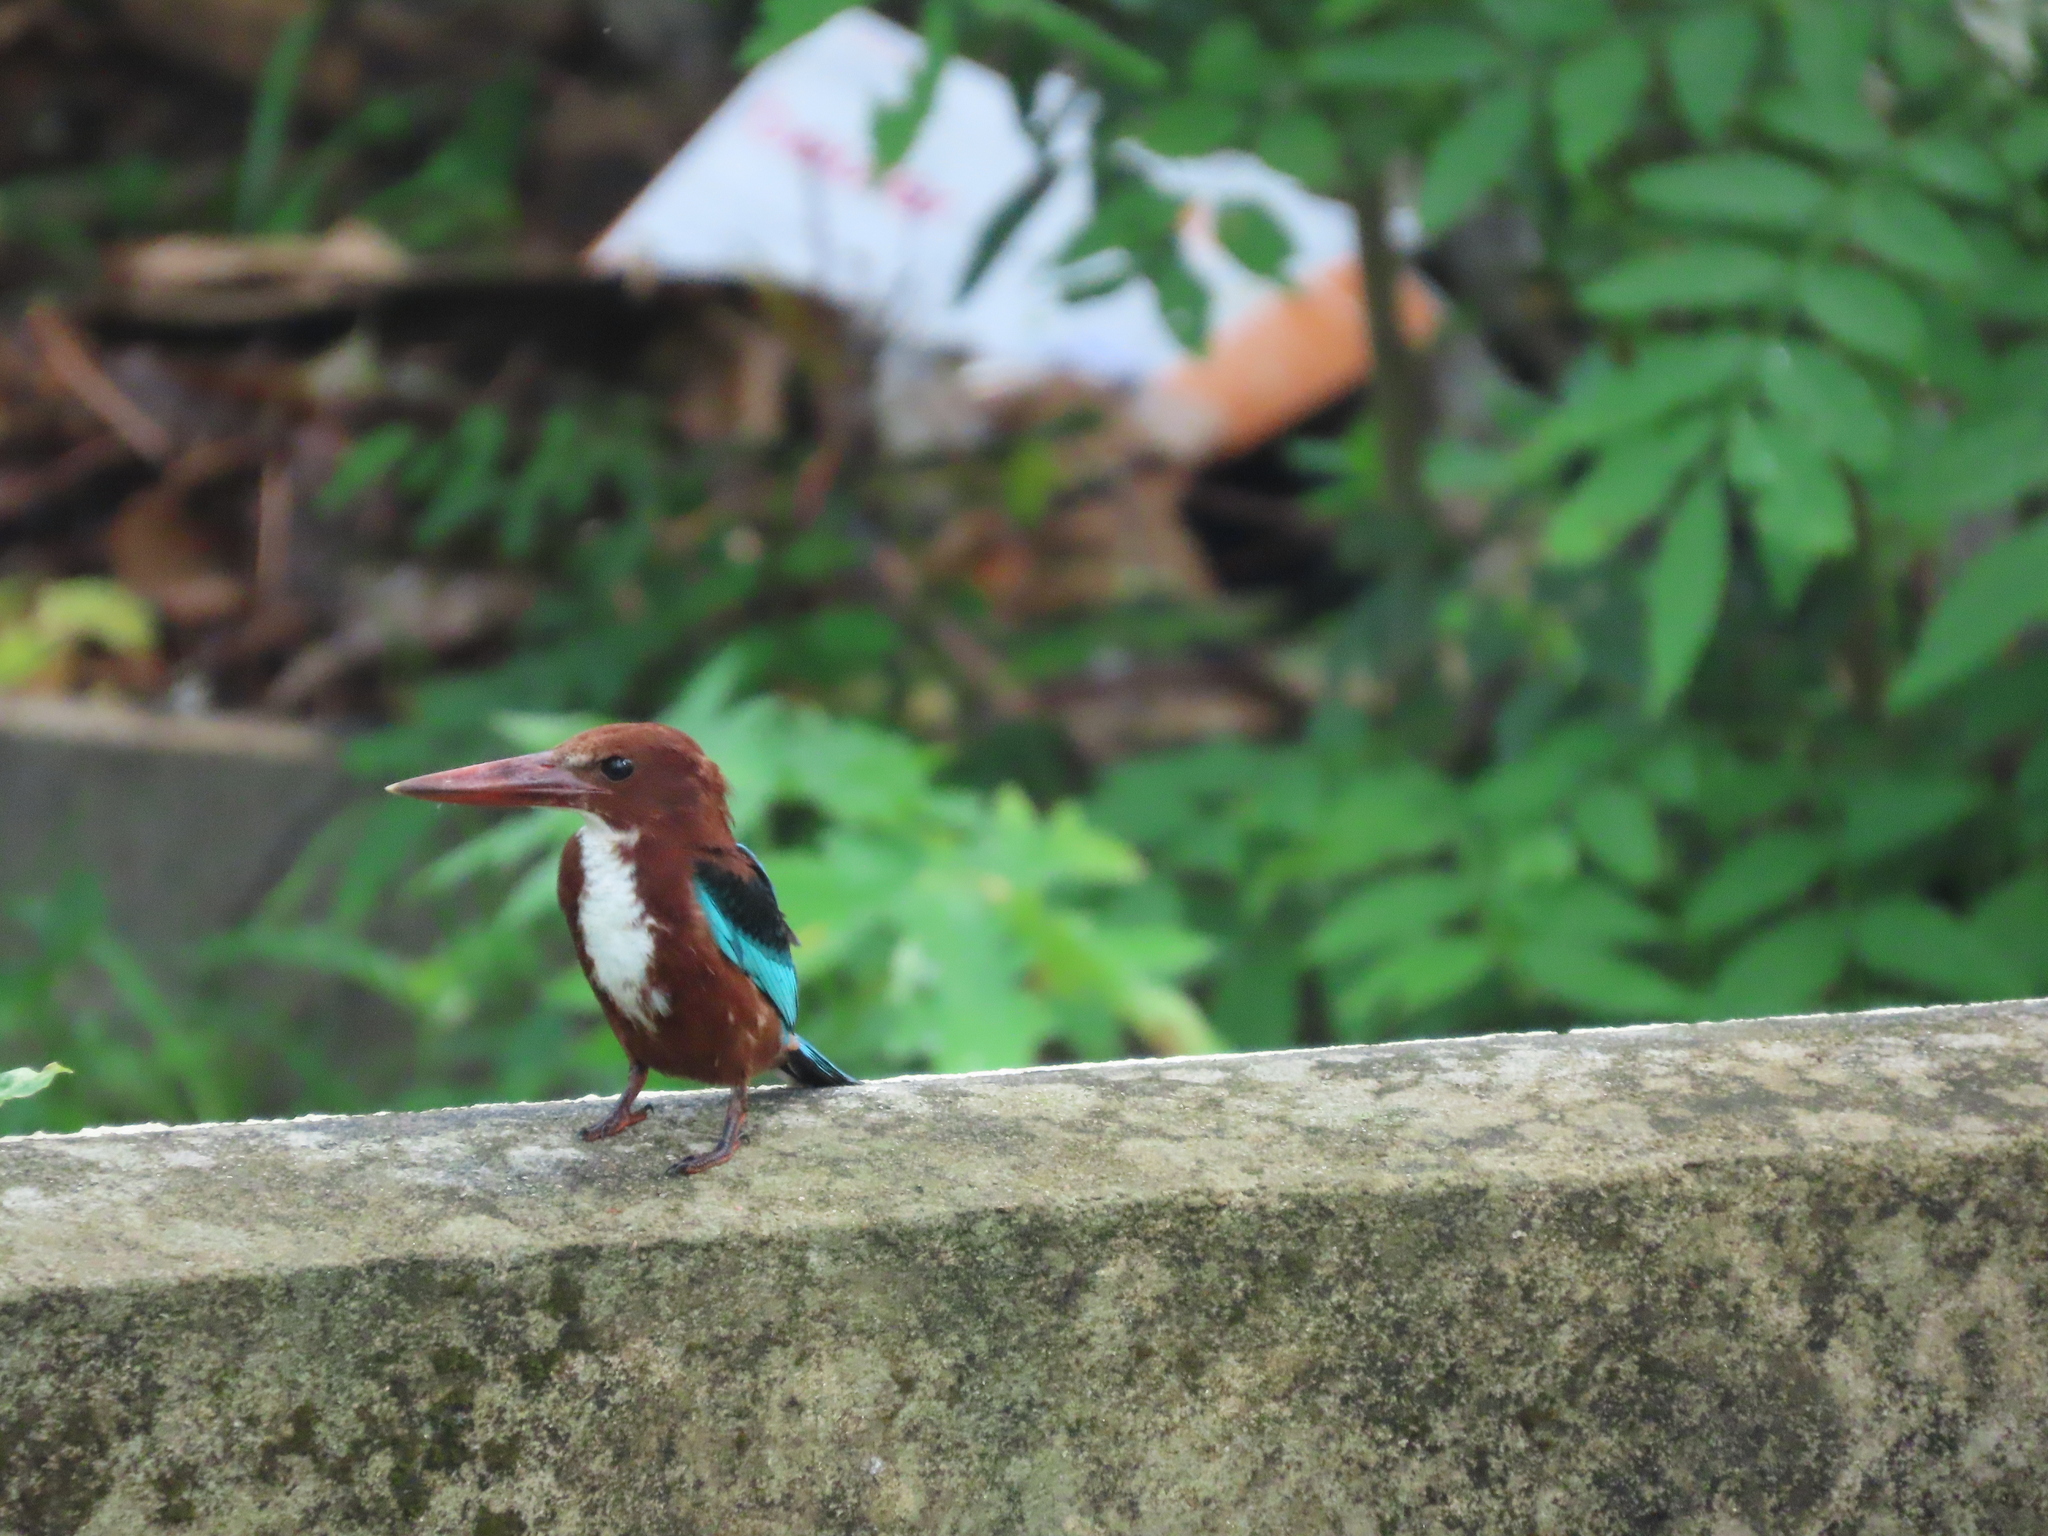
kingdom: Animalia
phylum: Chordata
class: Aves
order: Coraciiformes
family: Alcedinidae
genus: Halcyon
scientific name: Halcyon smyrnensis
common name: White-throated kingfisher
